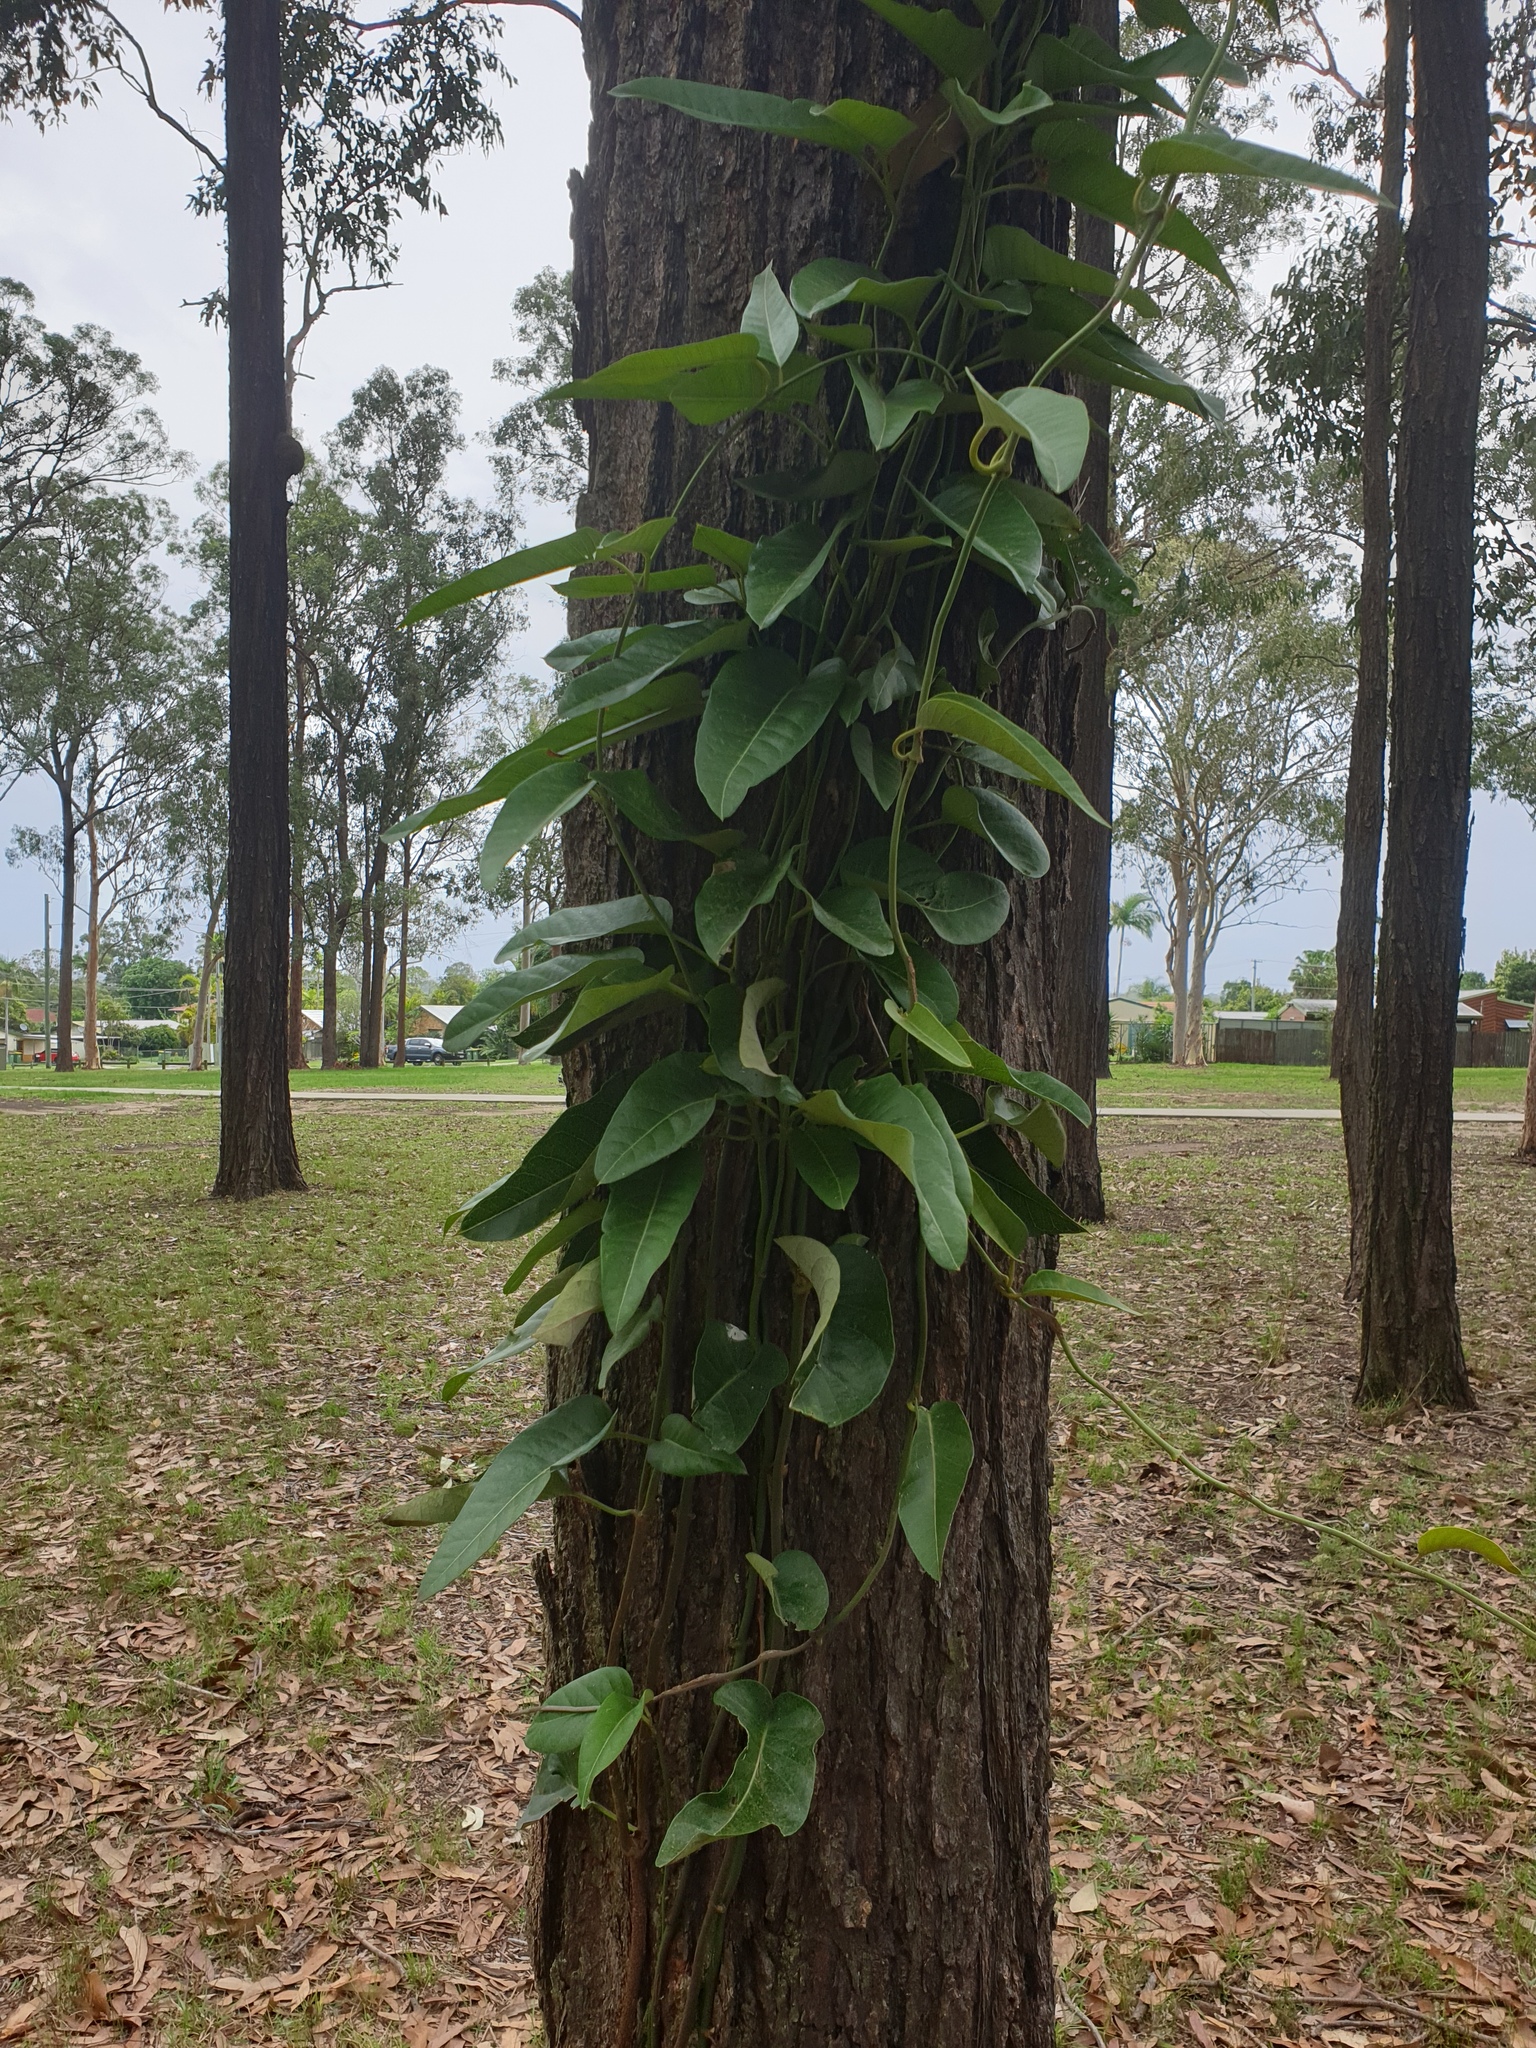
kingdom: Plantae
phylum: Tracheophyta
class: Magnoliopsida
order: Gentianales
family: Apocynaceae
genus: Parsonsia
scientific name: Parsonsia brisbanensis
